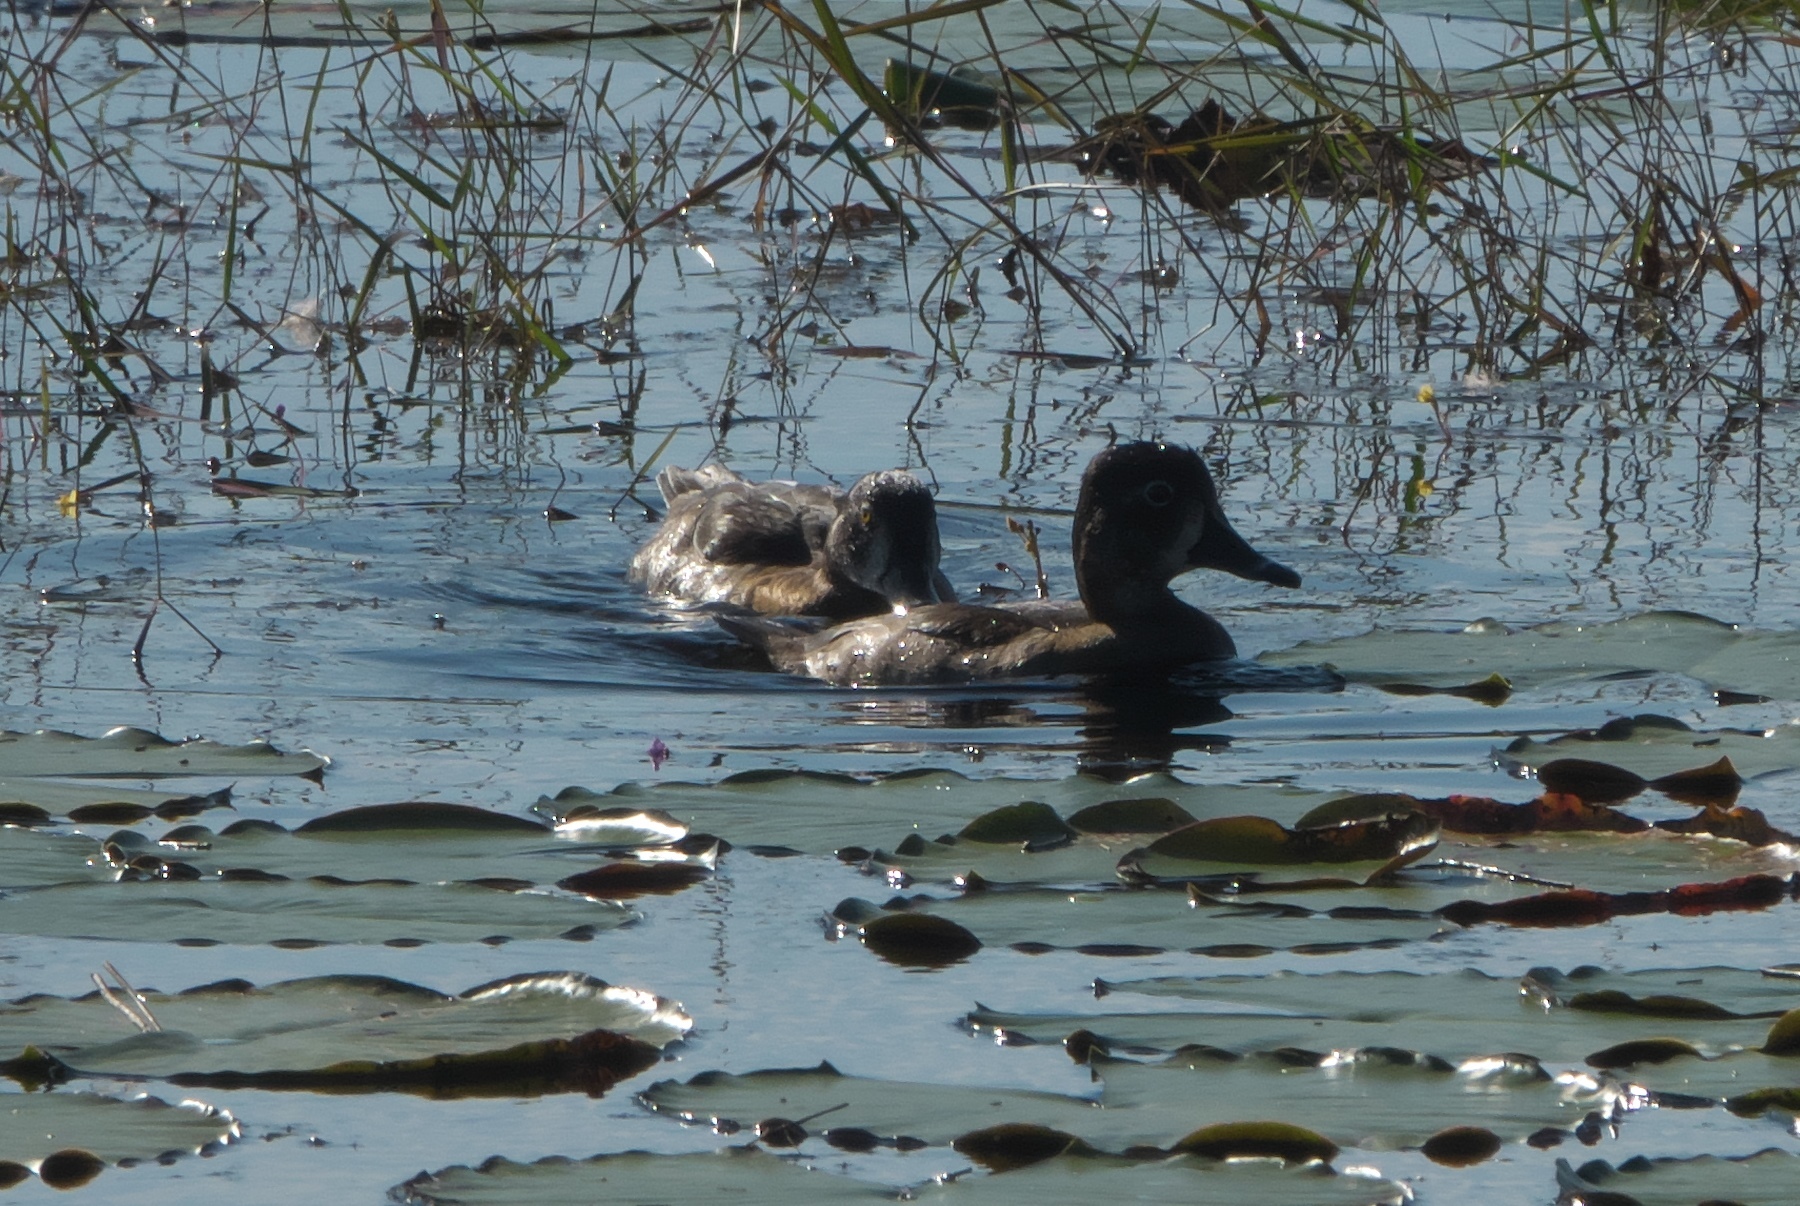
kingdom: Animalia
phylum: Chordata
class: Aves
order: Anseriformes
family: Anatidae
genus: Aythya
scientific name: Aythya collaris
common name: Ring-necked duck
